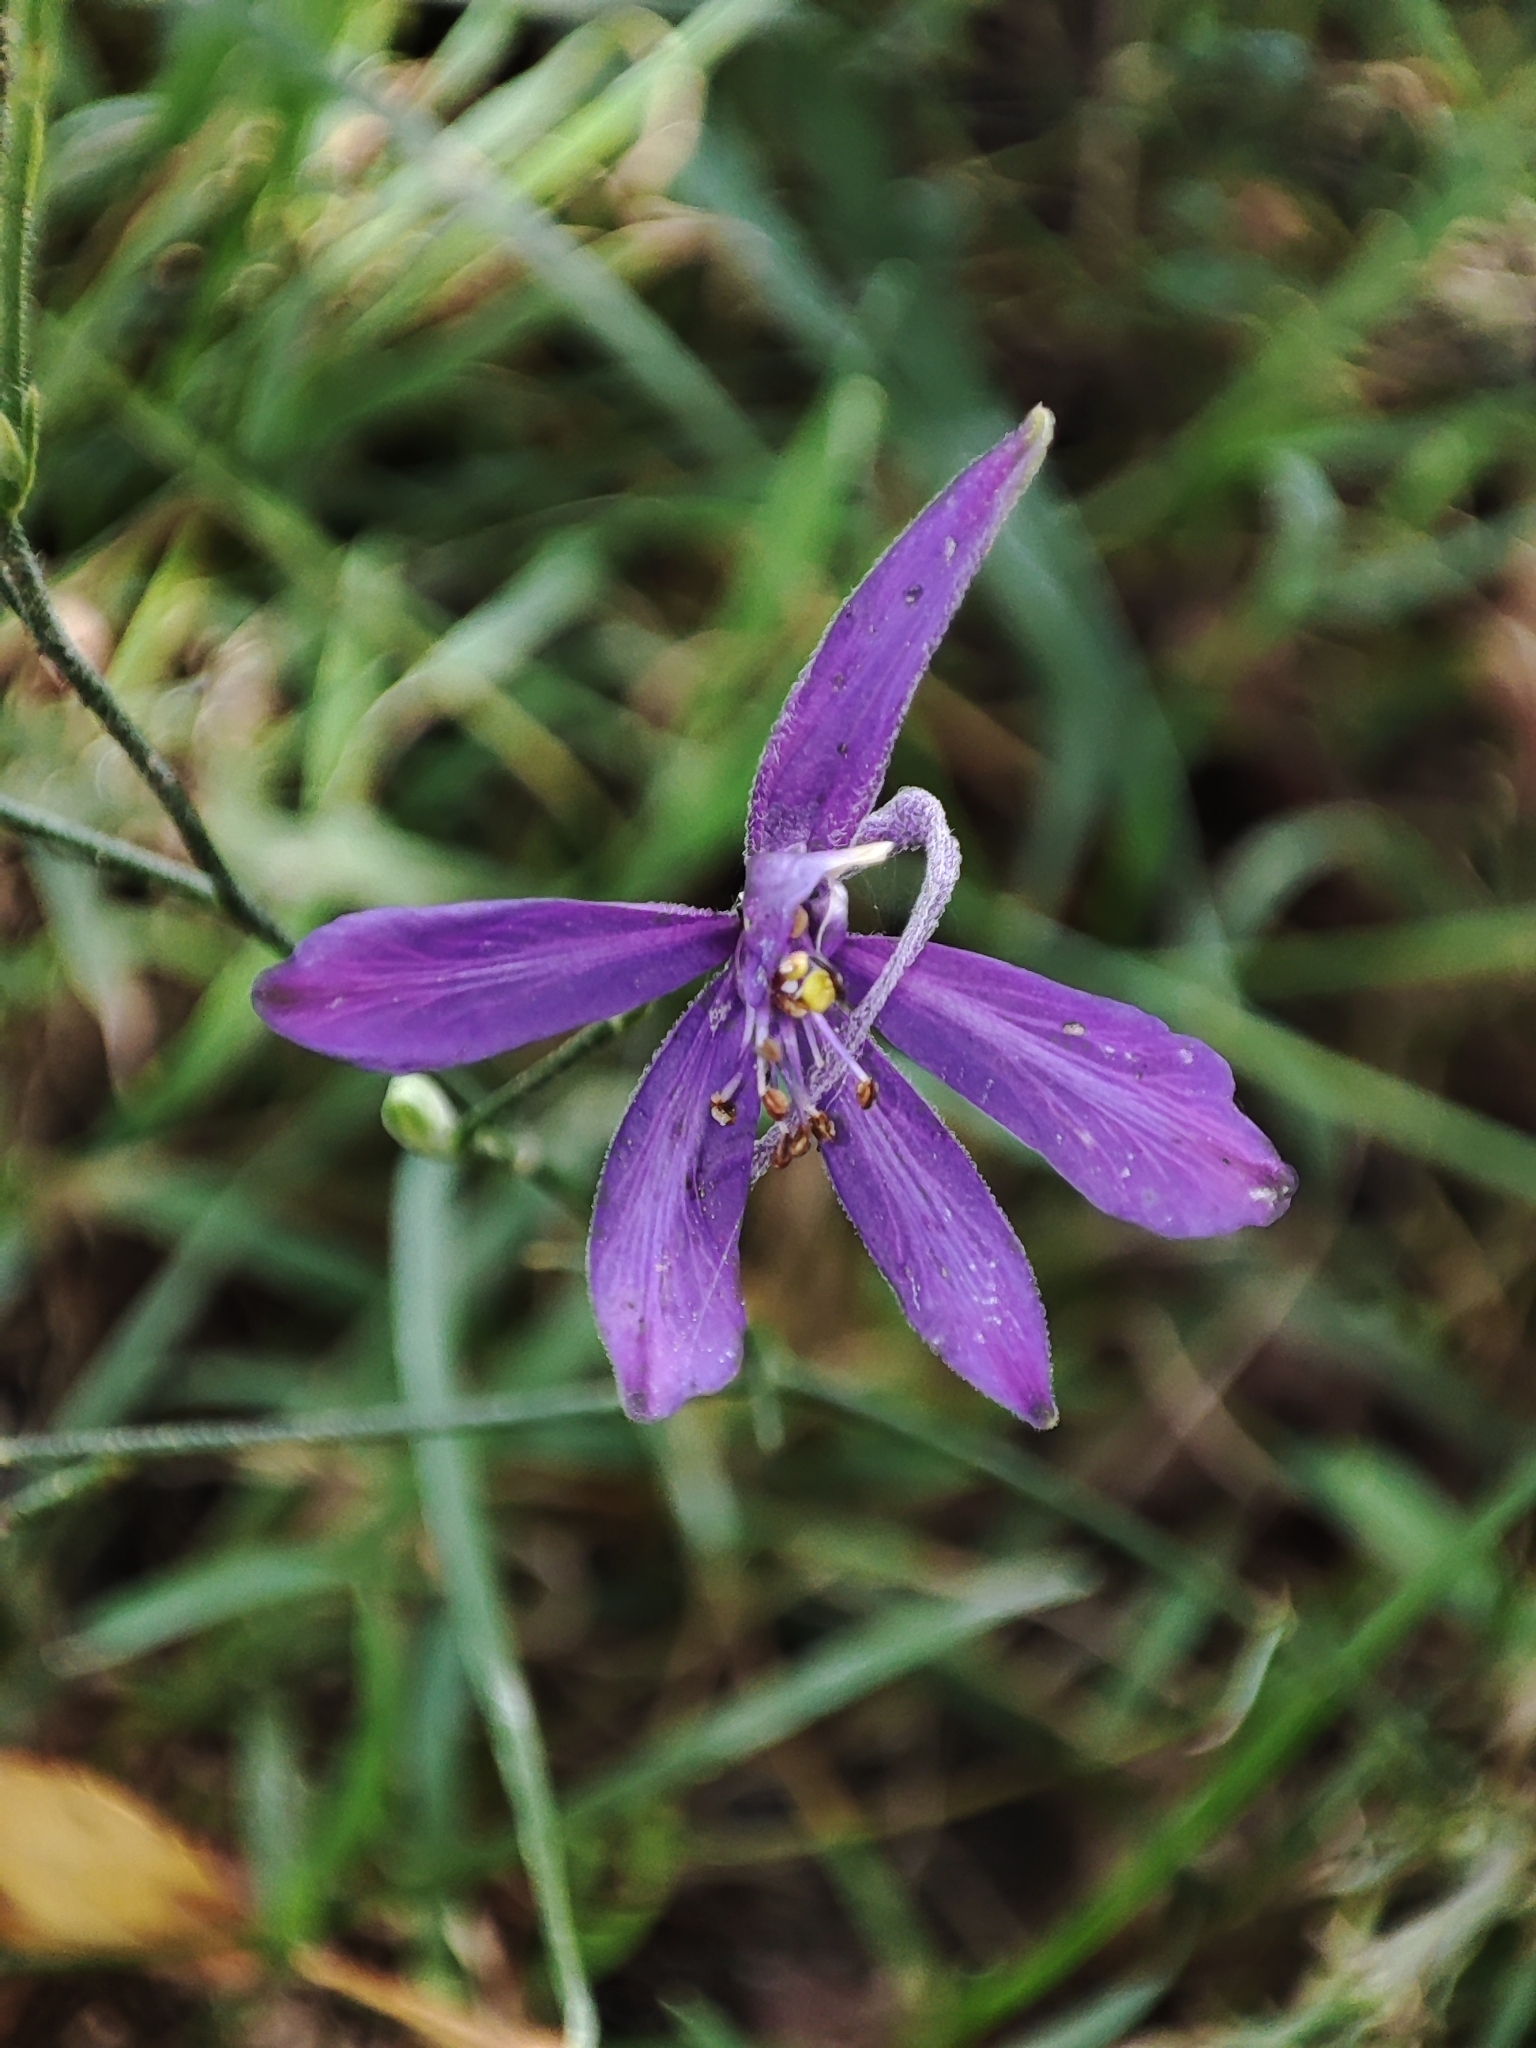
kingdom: Plantae
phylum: Tracheophyta
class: Magnoliopsida
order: Ranunculales
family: Ranunculaceae
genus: Delphinium
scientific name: Delphinium consolida
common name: Branching larkspur
